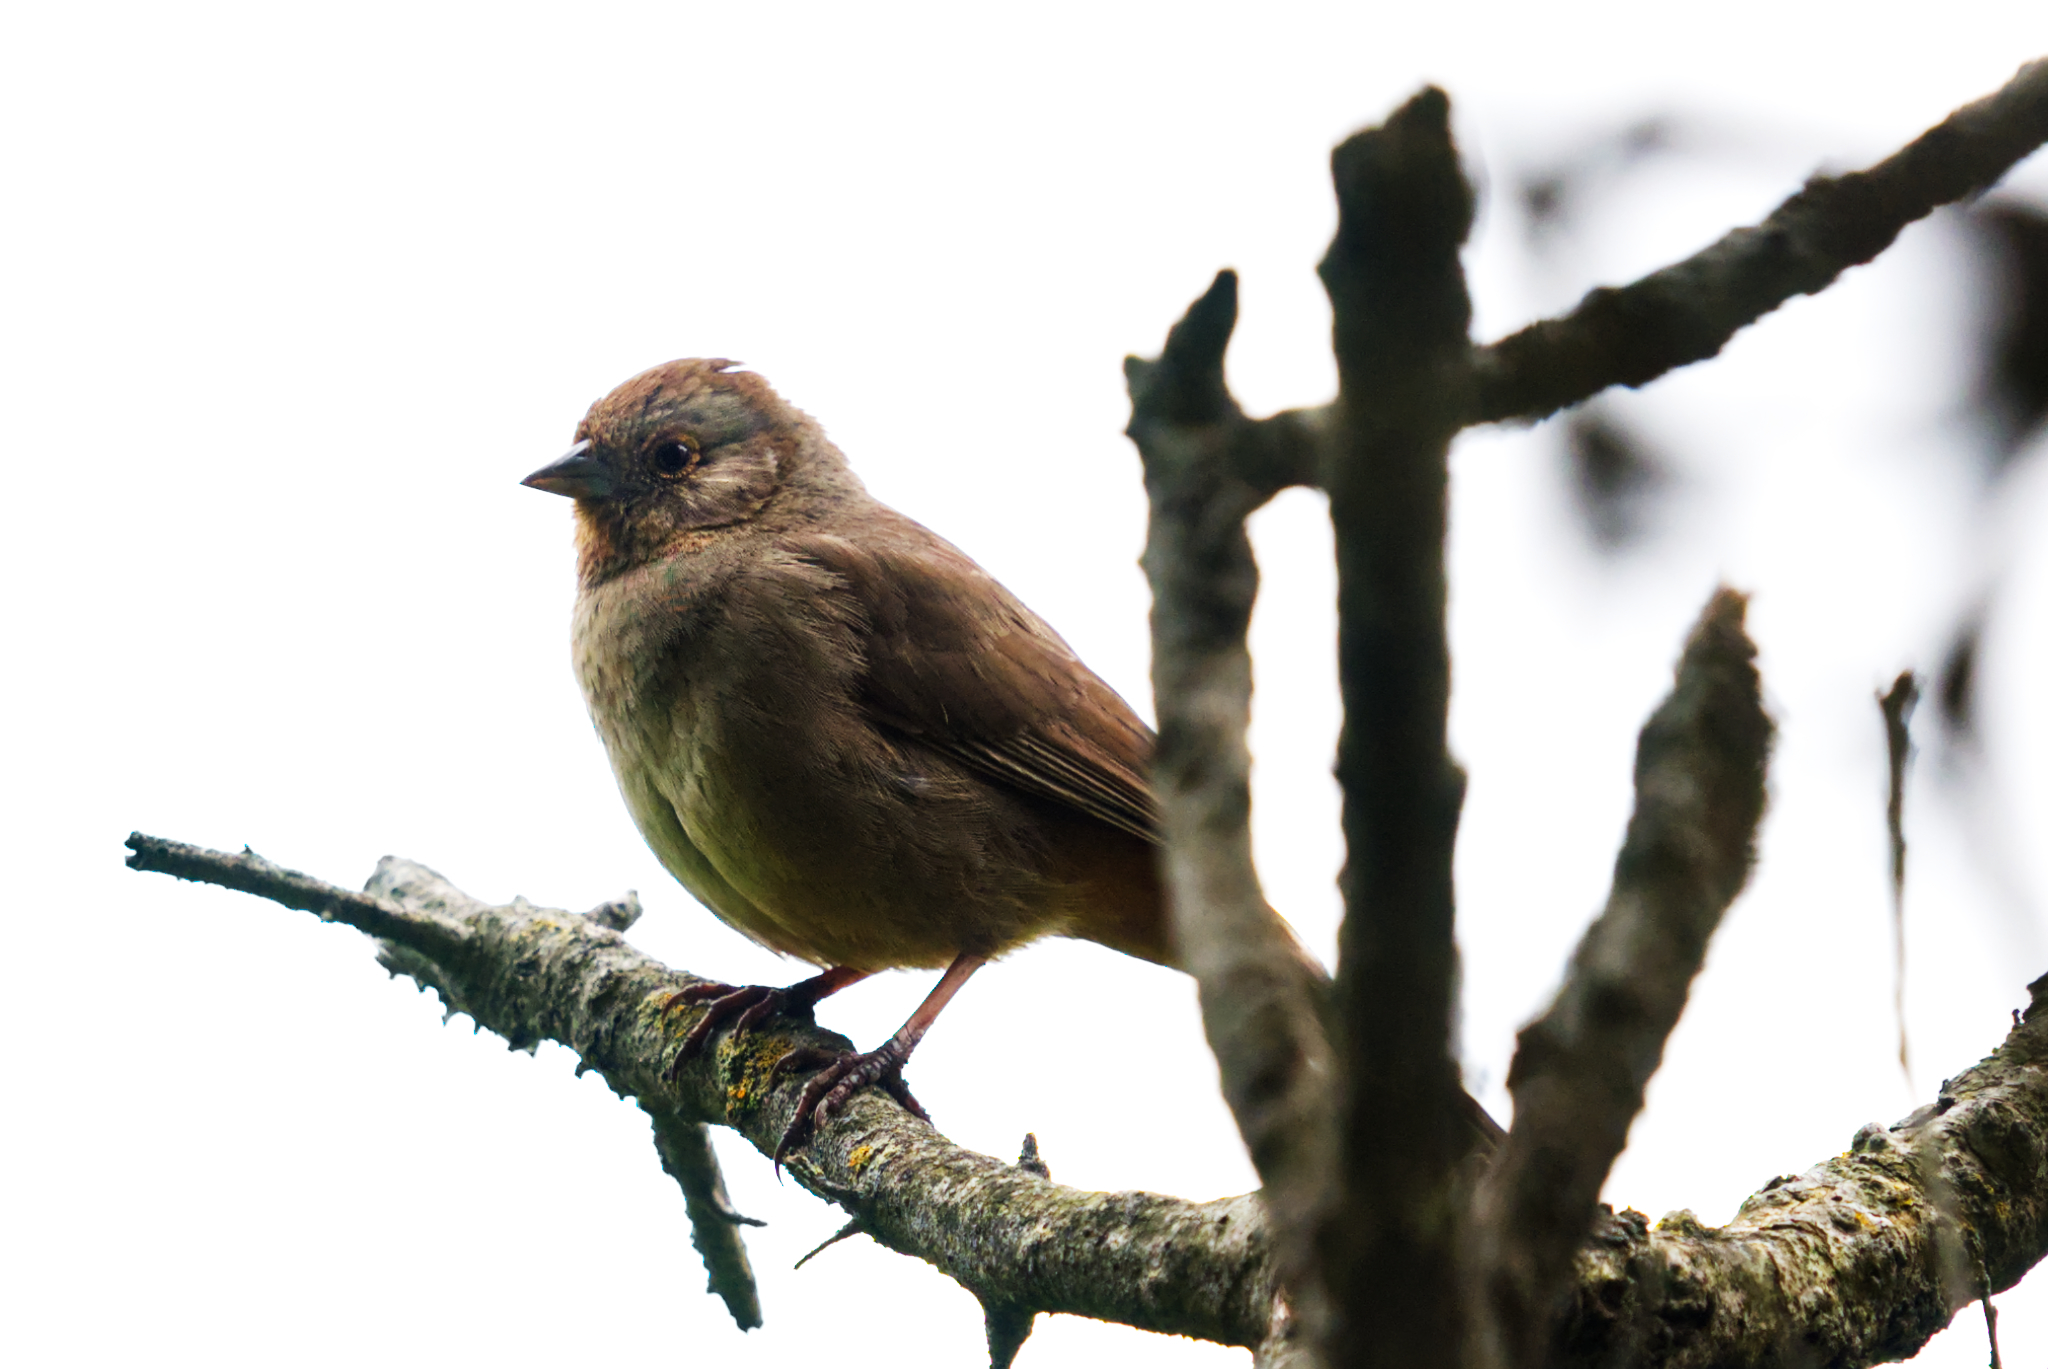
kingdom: Animalia
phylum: Chordata
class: Aves
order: Passeriformes
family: Passerellidae
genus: Melozone
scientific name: Melozone crissalis
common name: California towhee
